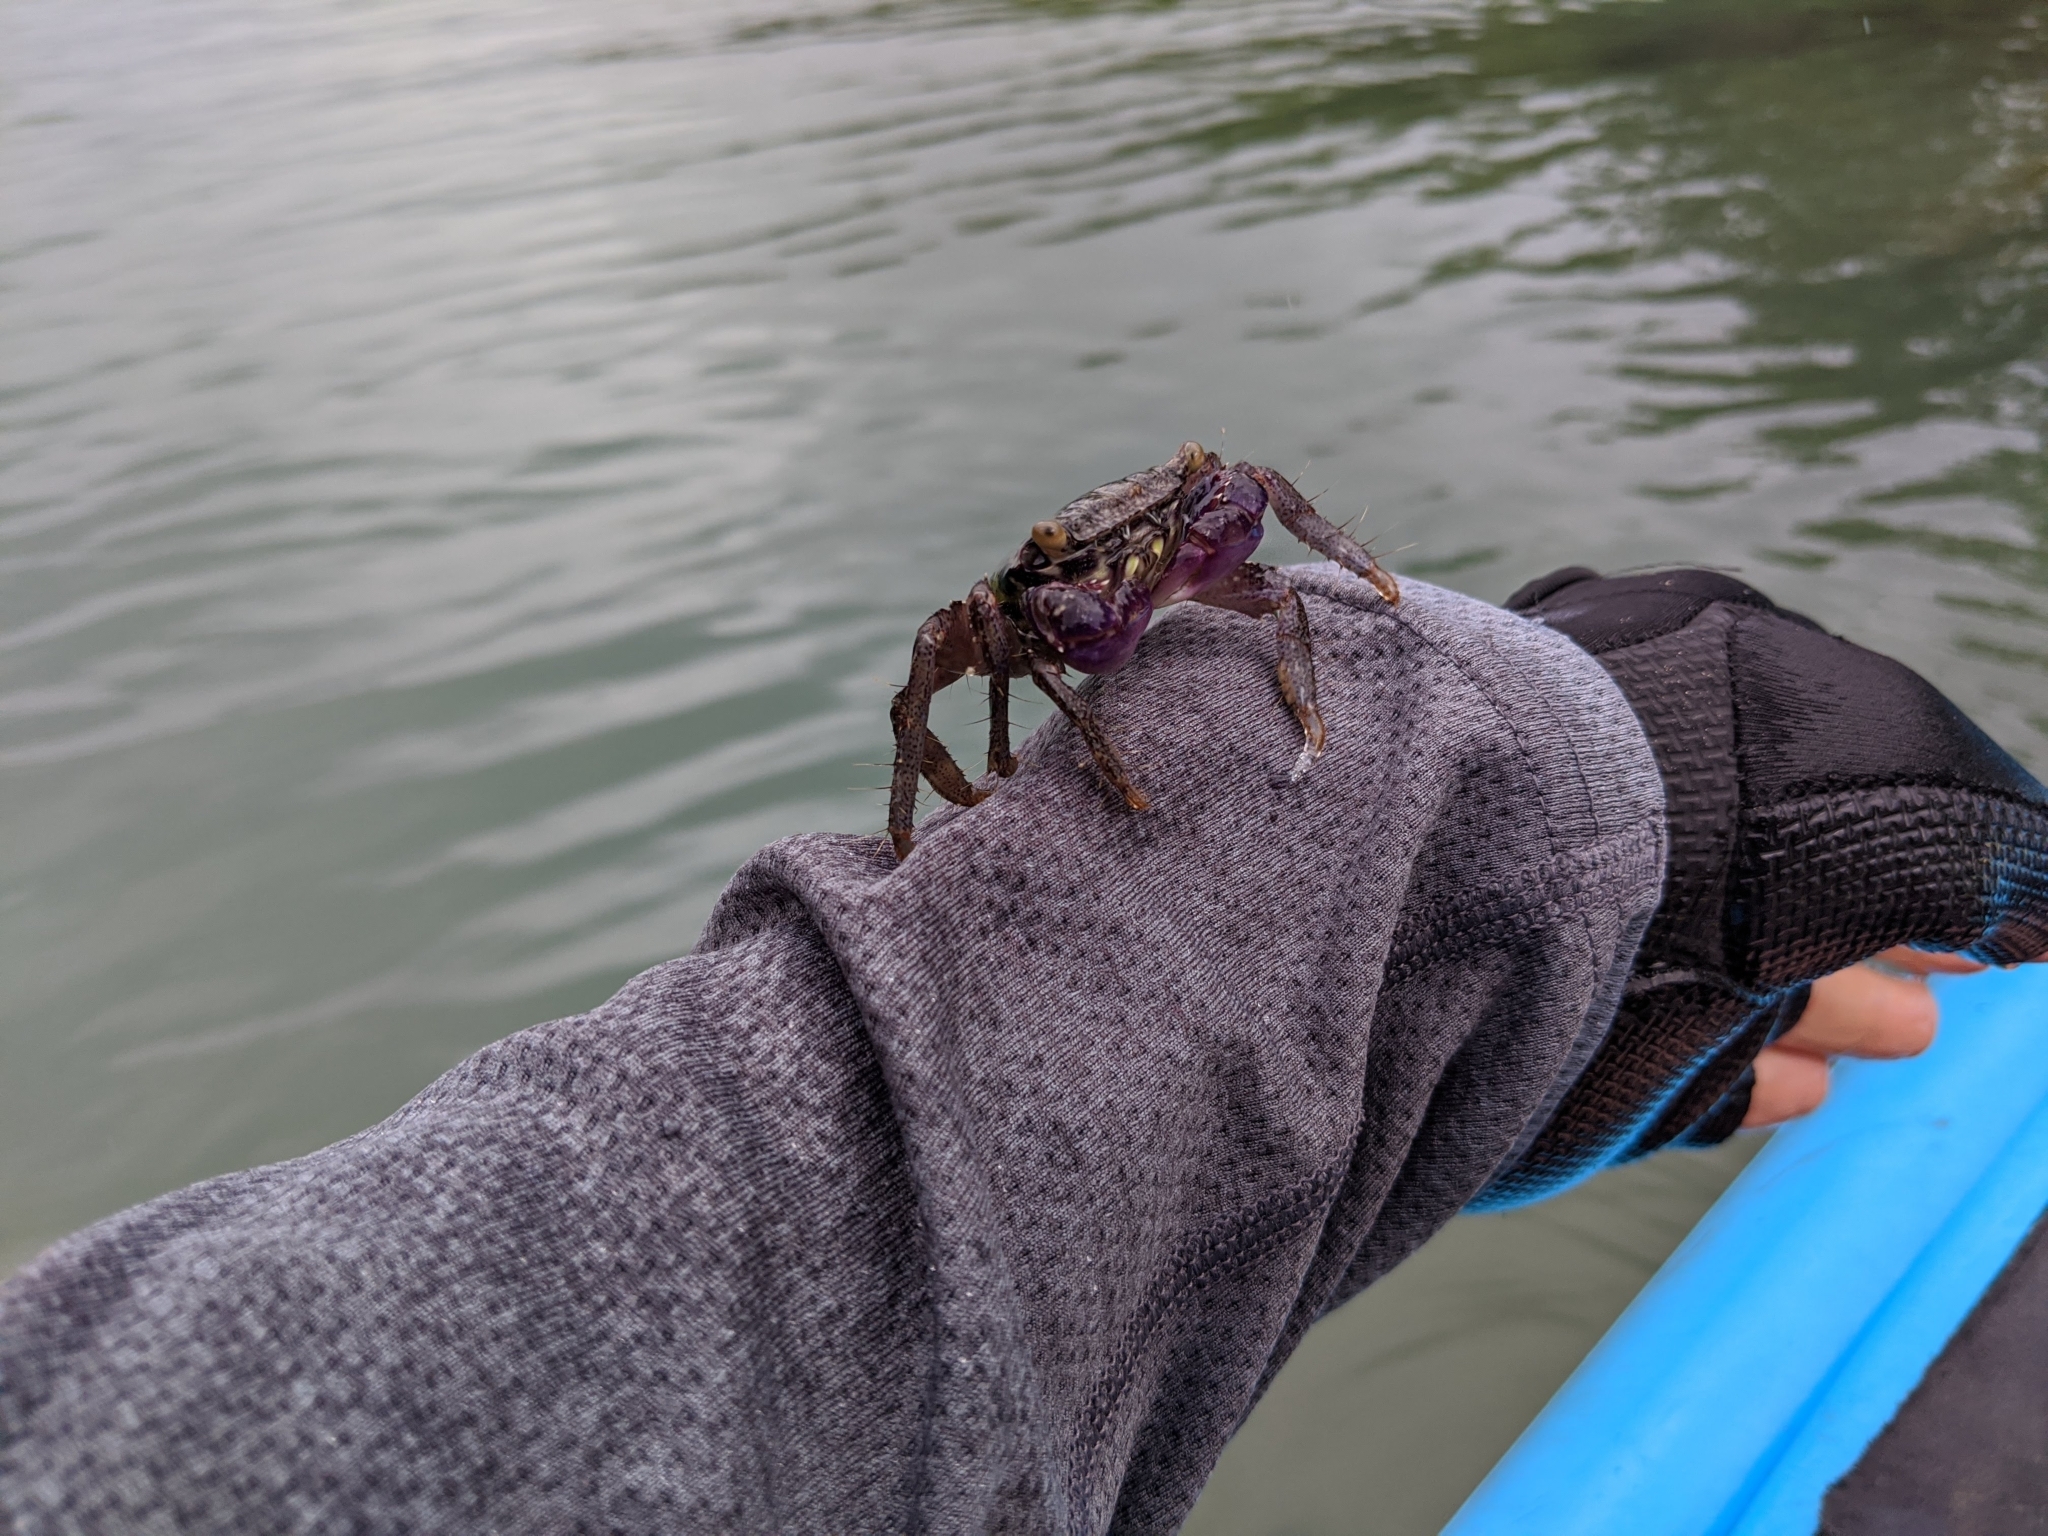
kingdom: Animalia
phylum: Arthropoda
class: Malacostraca
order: Decapoda
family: Grapsidae
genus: Metopograpsus
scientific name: Metopograpsus thukuhar
